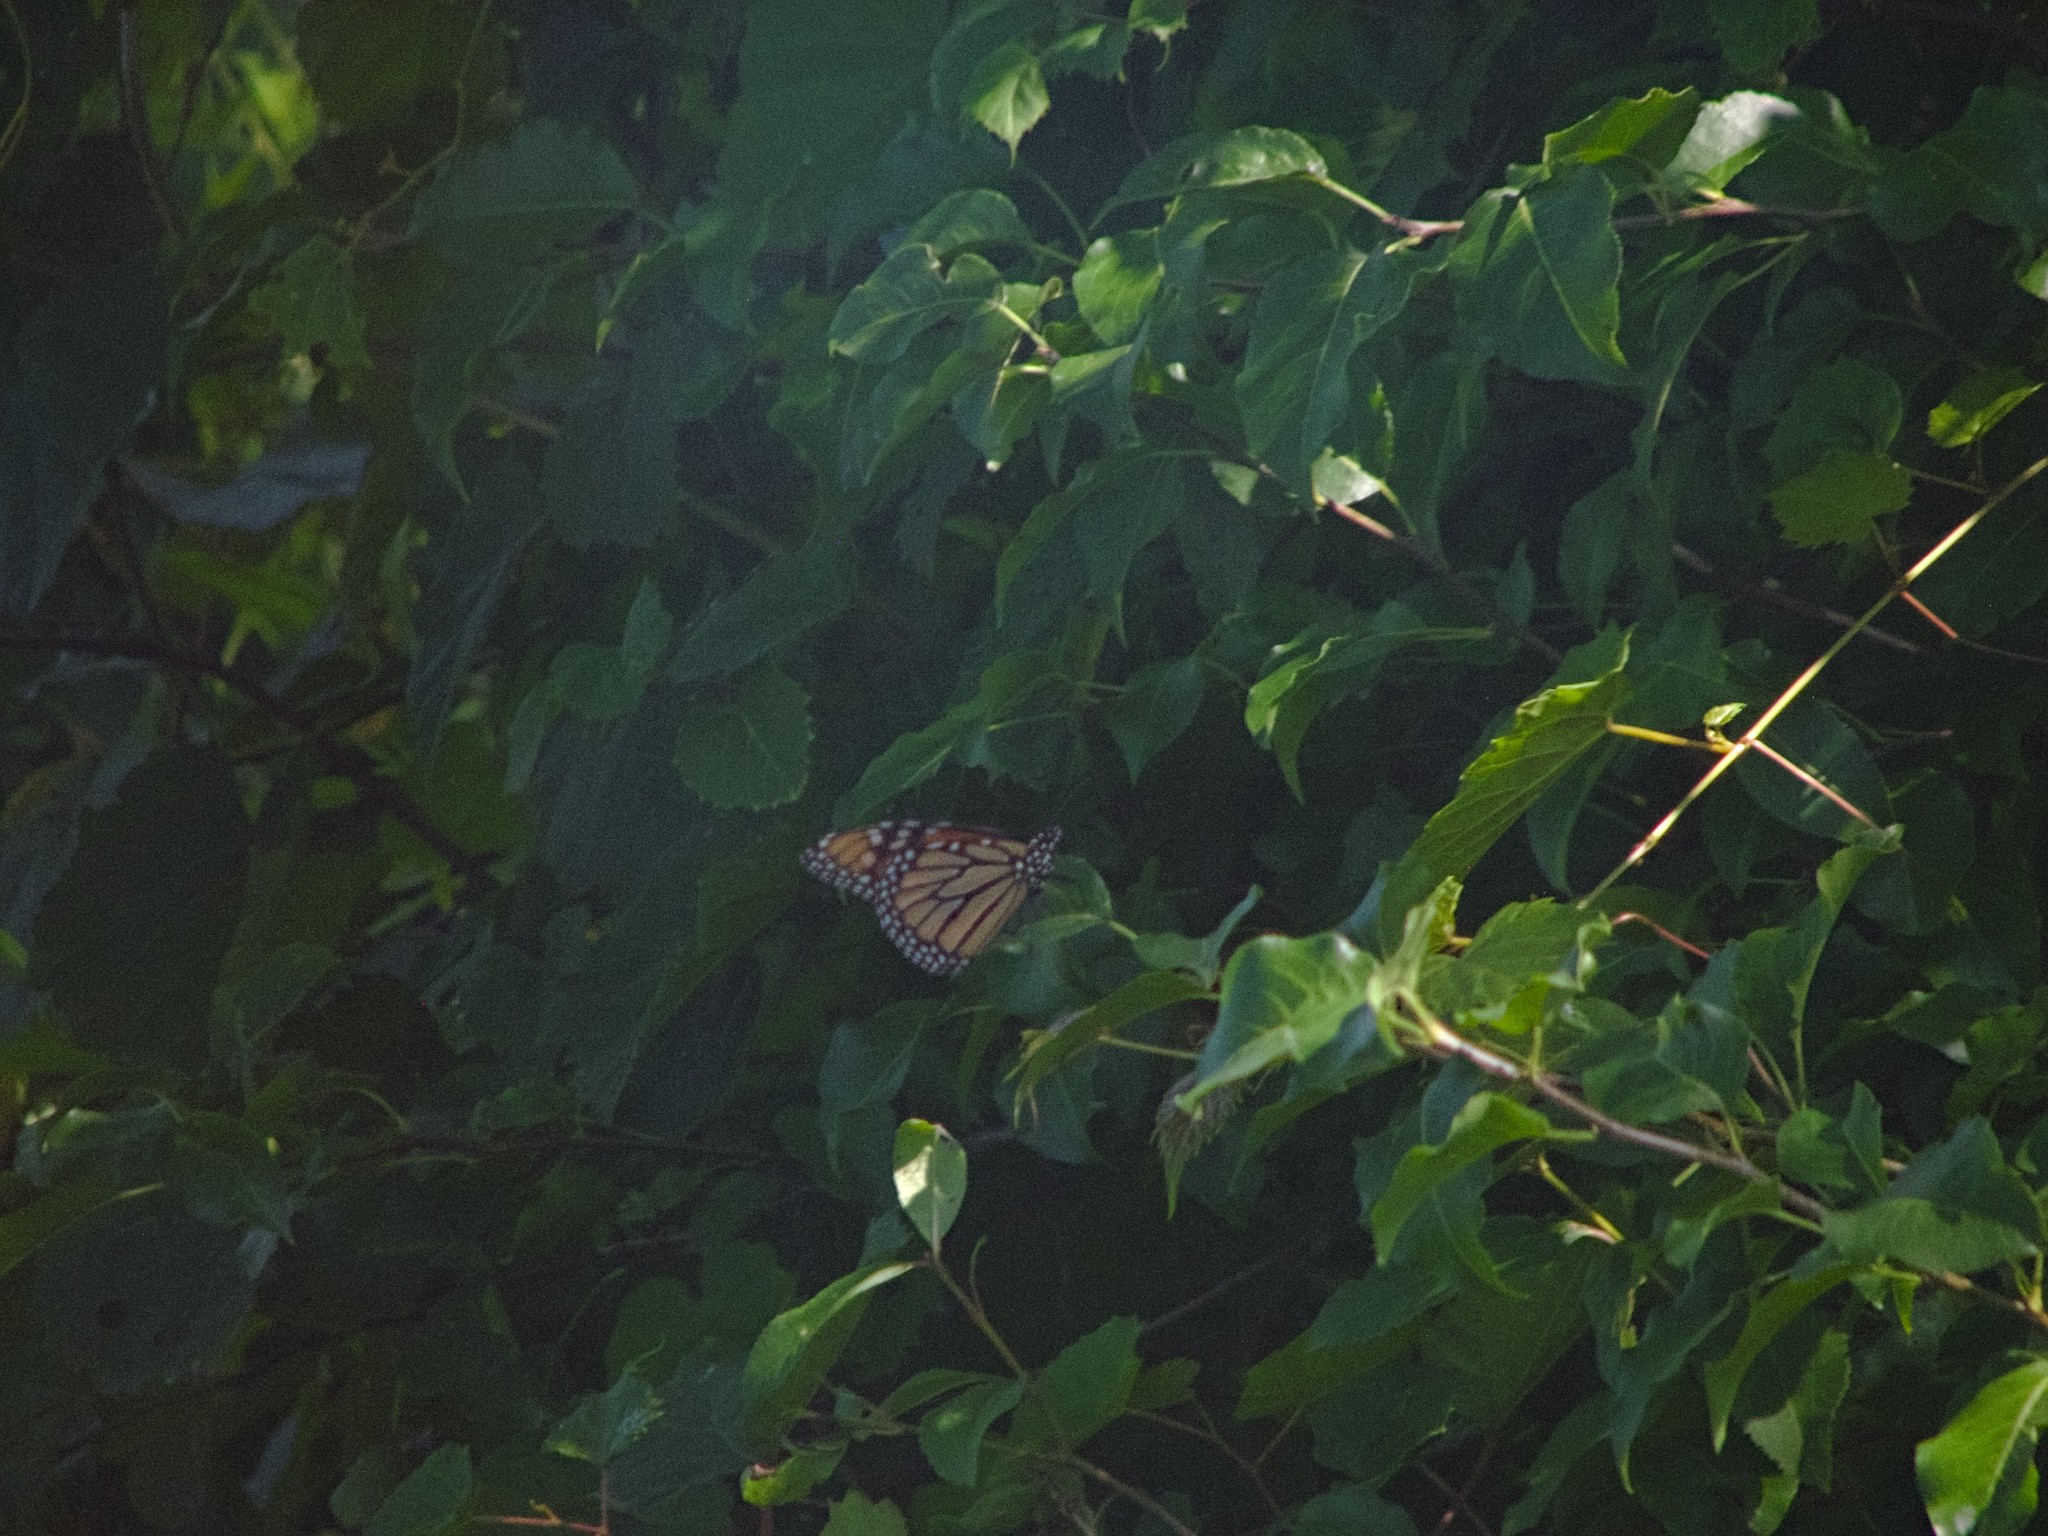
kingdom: Animalia
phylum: Arthropoda
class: Insecta
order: Lepidoptera
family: Nymphalidae
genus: Danaus
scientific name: Danaus plexippus
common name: Monarch
